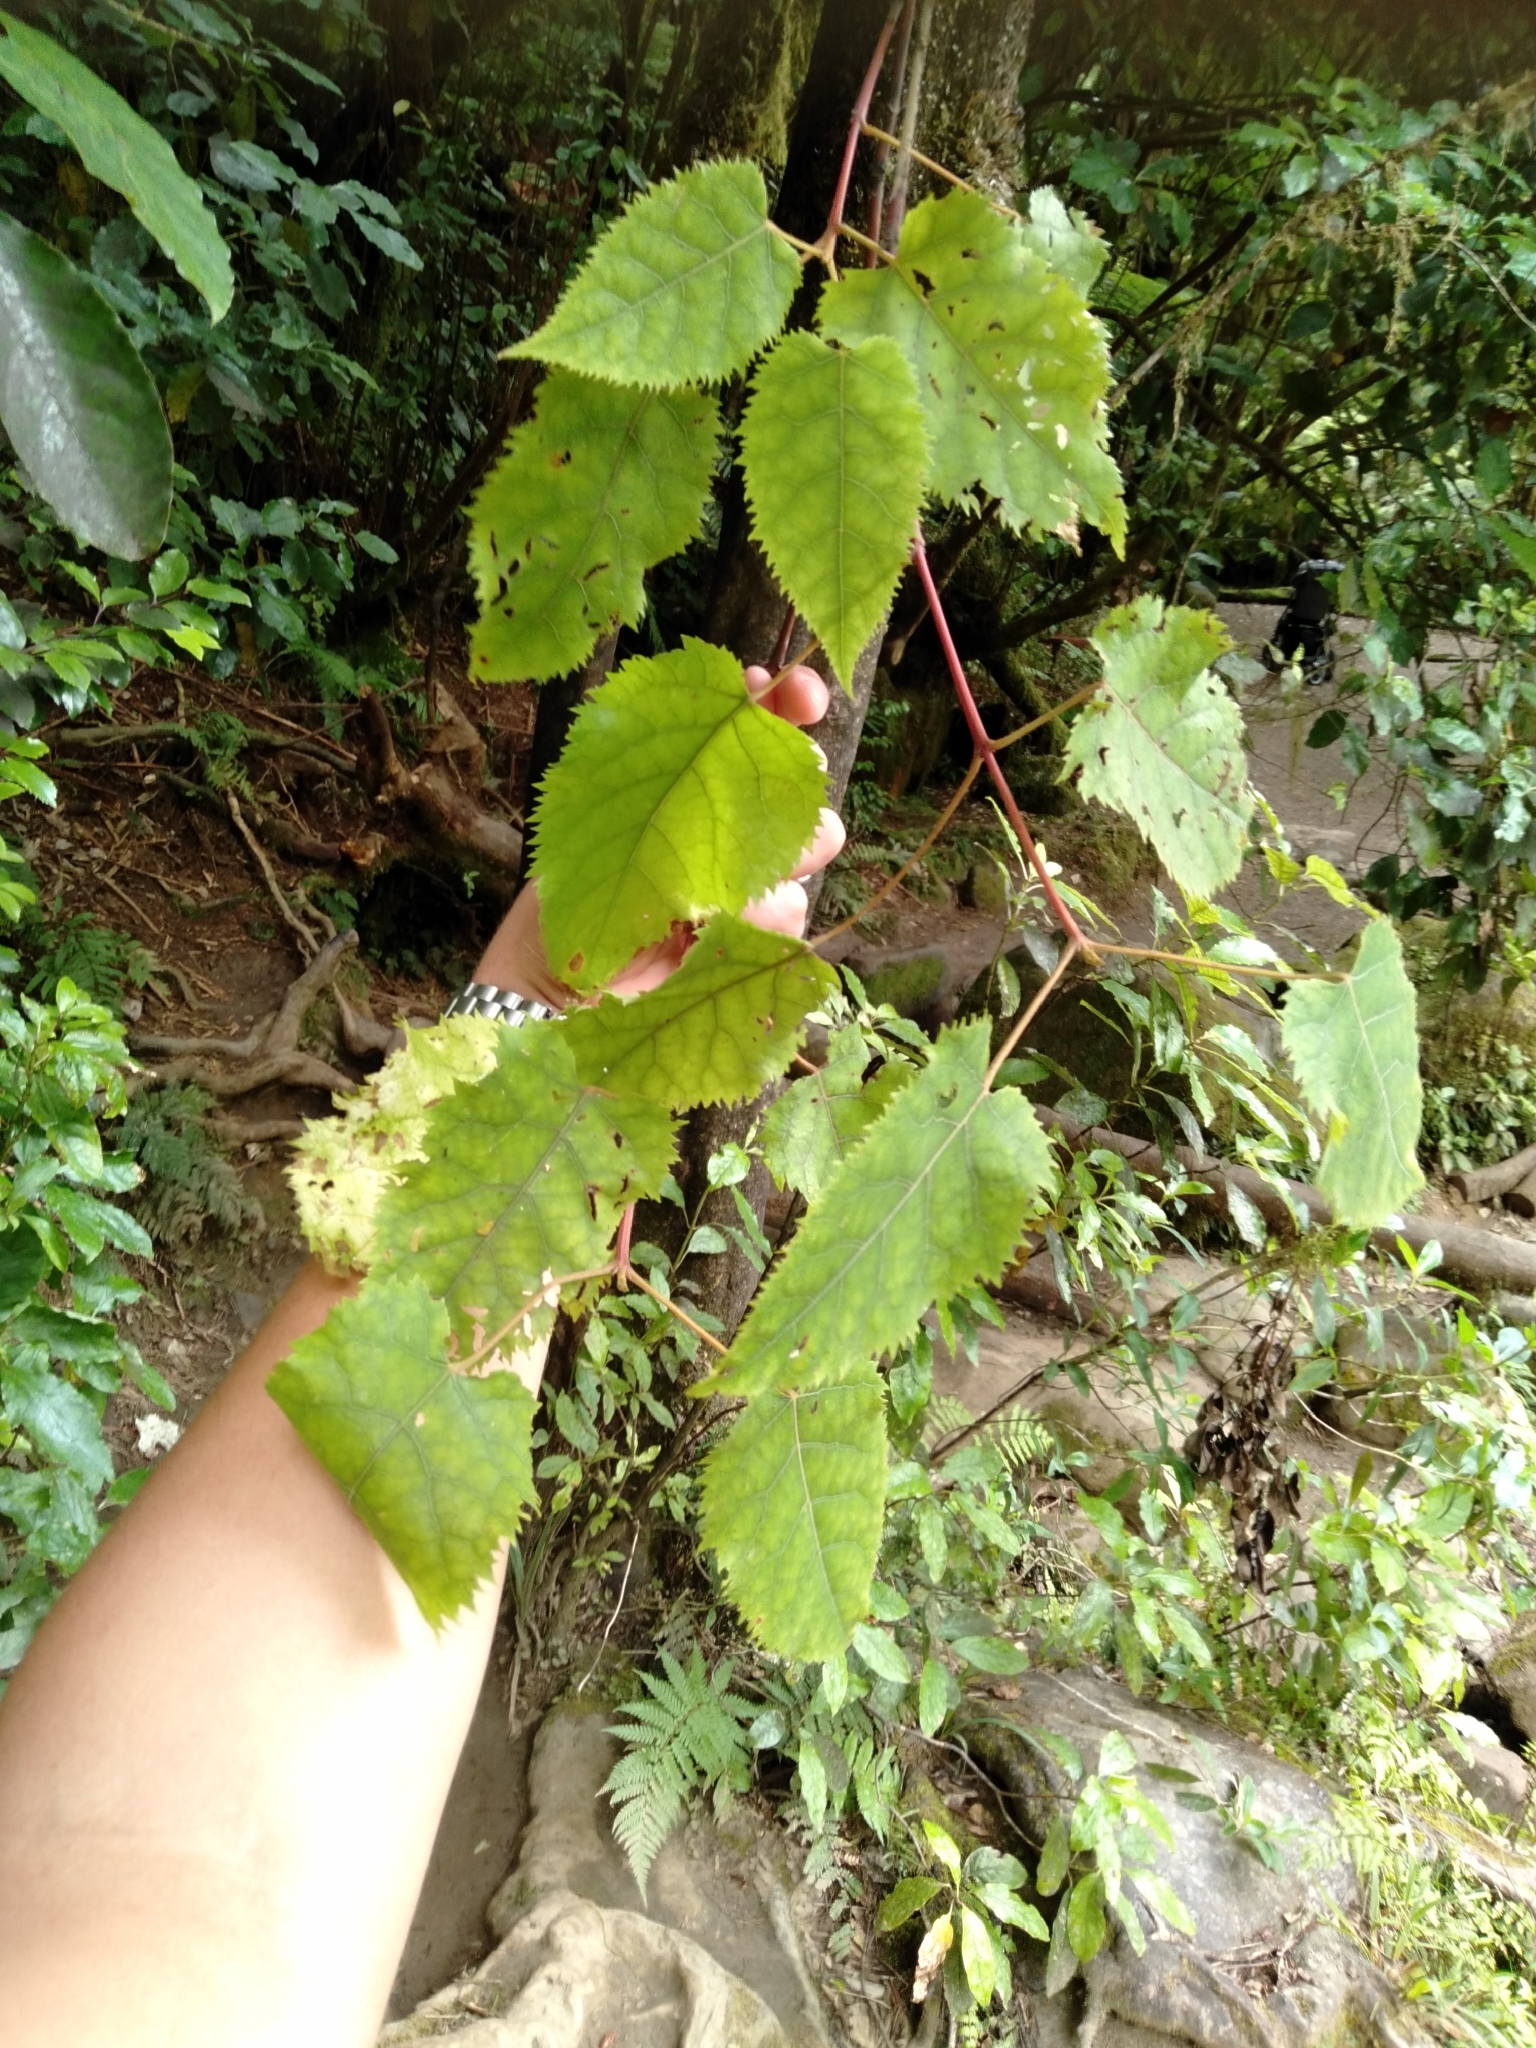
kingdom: Plantae
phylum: Tracheophyta
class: Magnoliopsida
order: Oxalidales
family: Elaeocarpaceae
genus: Aristotelia
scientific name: Aristotelia serrata
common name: New zealand wineberry
